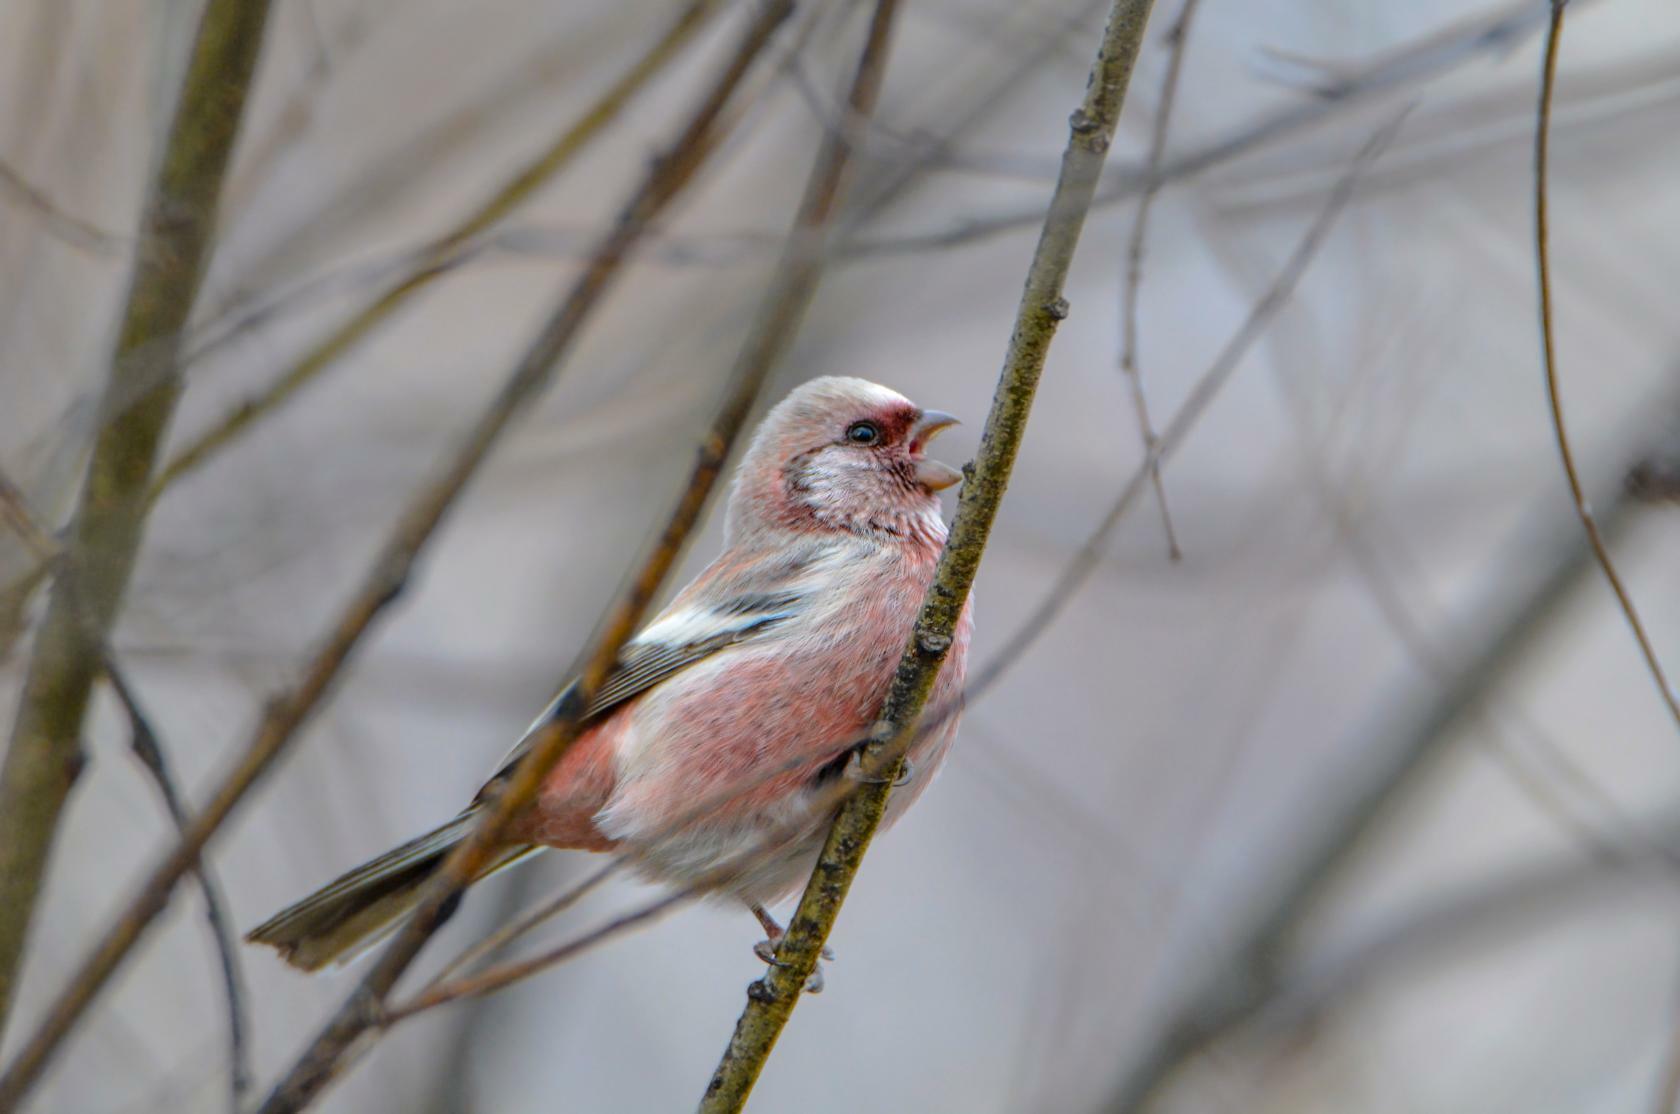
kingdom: Animalia
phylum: Chordata
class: Aves
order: Passeriformes
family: Fringillidae
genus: Carpodacus
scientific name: Carpodacus sibiricus
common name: Long-tailed rosefinch
